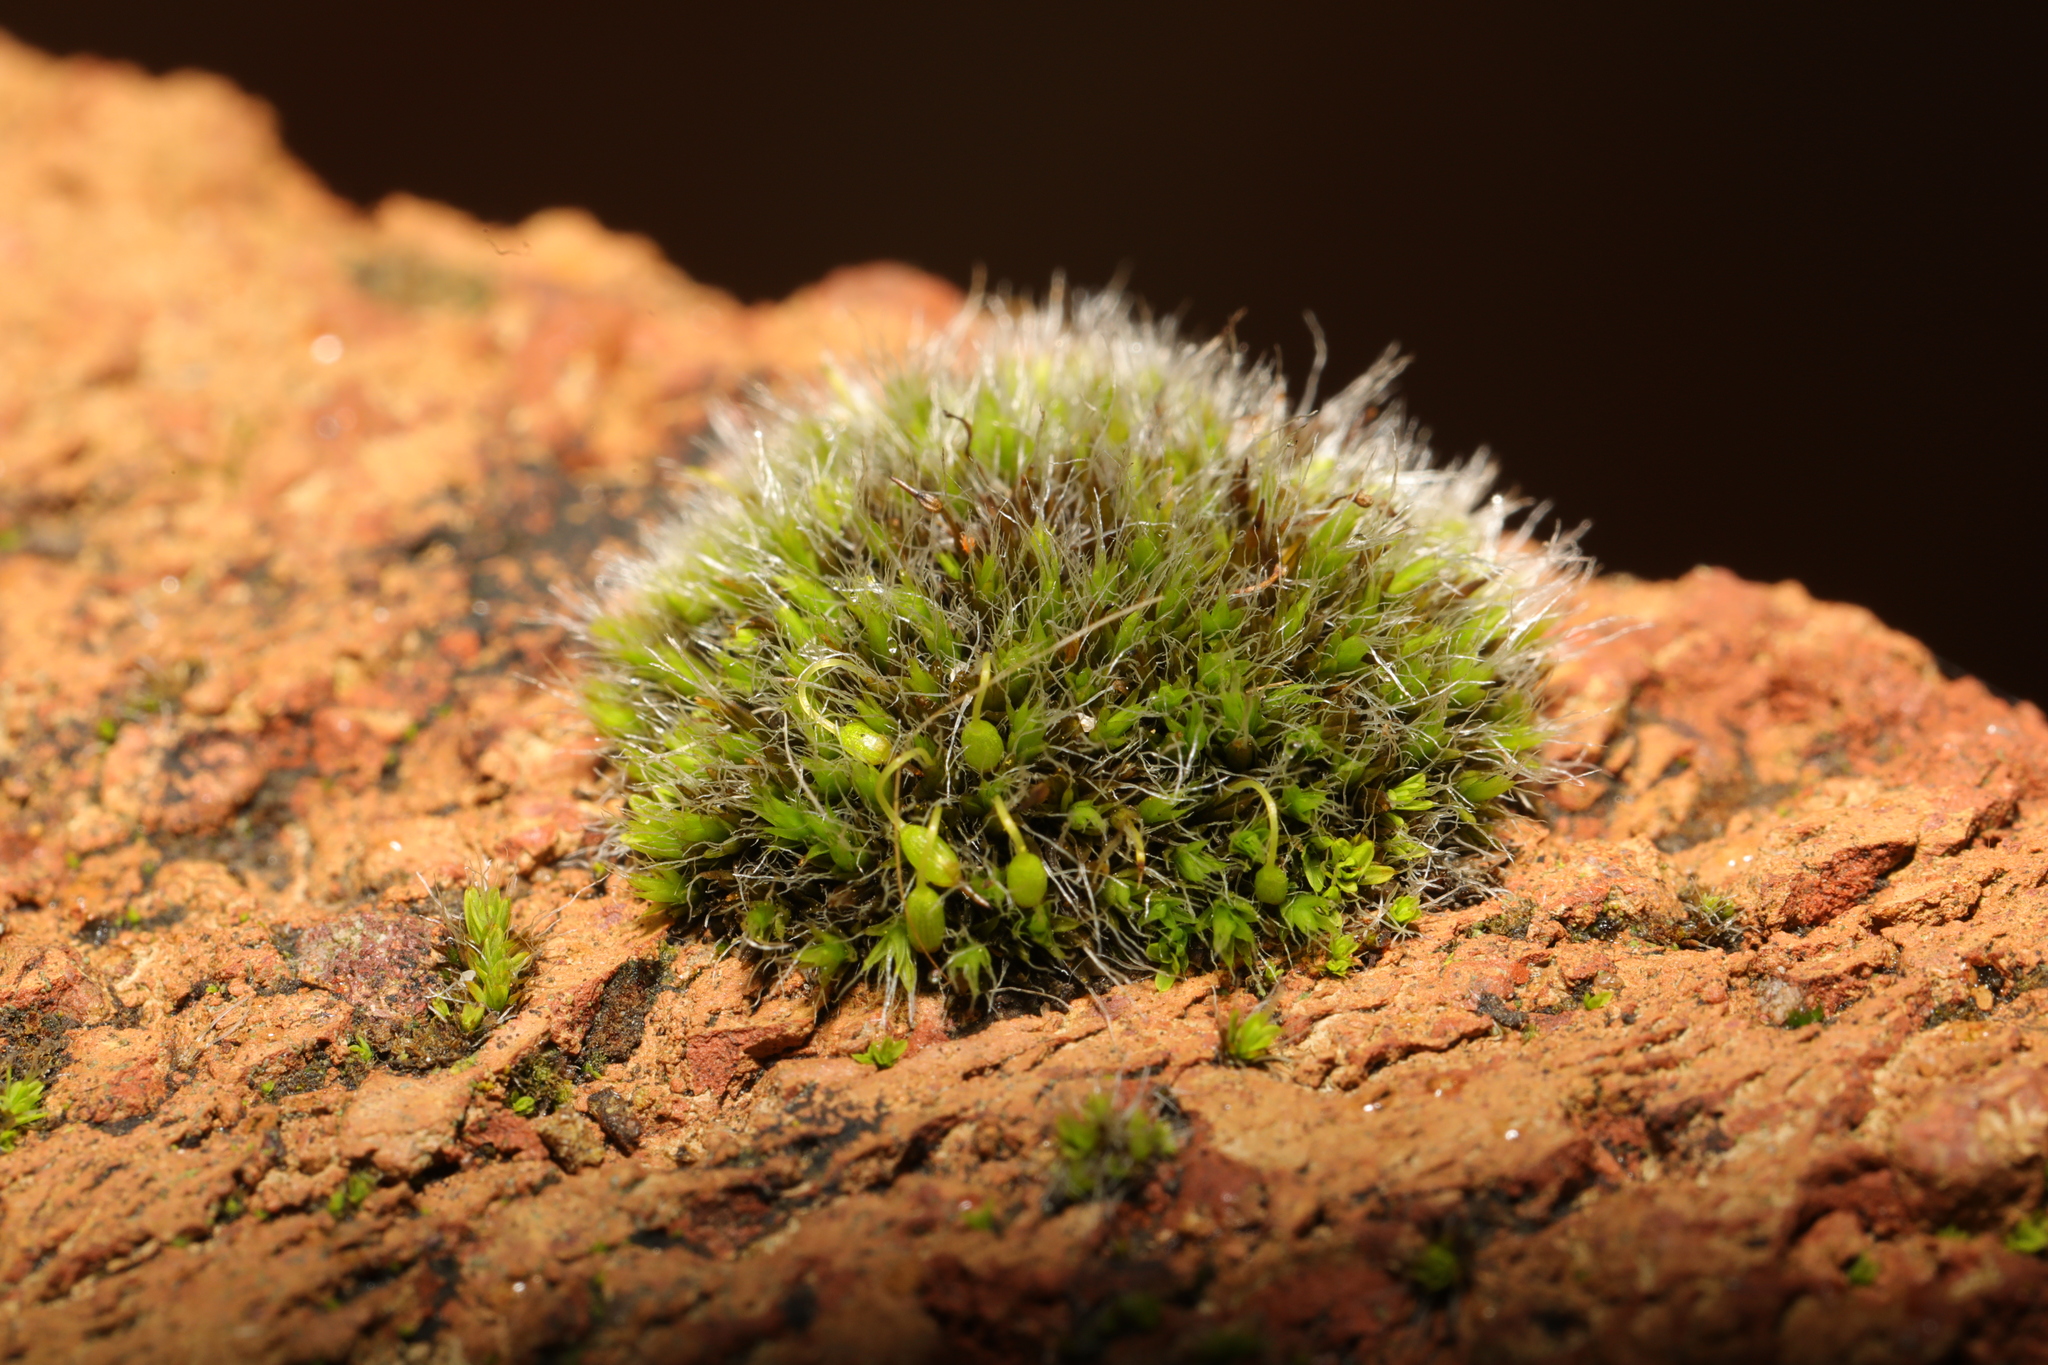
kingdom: Plantae
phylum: Bryophyta
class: Bryopsida
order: Grimmiales
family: Grimmiaceae
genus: Grimmia
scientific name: Grimmia pulvinata
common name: Grey-cushioned grimmia
